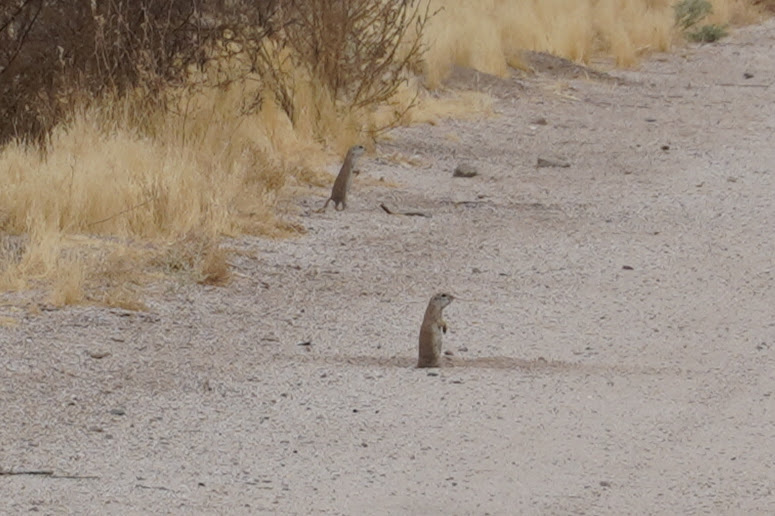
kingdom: Animalia
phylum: Chordata
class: Mammalia
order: Rodentia
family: Sciuridae
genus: Xerospermophilus
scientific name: Xerospermophilus tereticaudus
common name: Round-tailed ground squirrel
